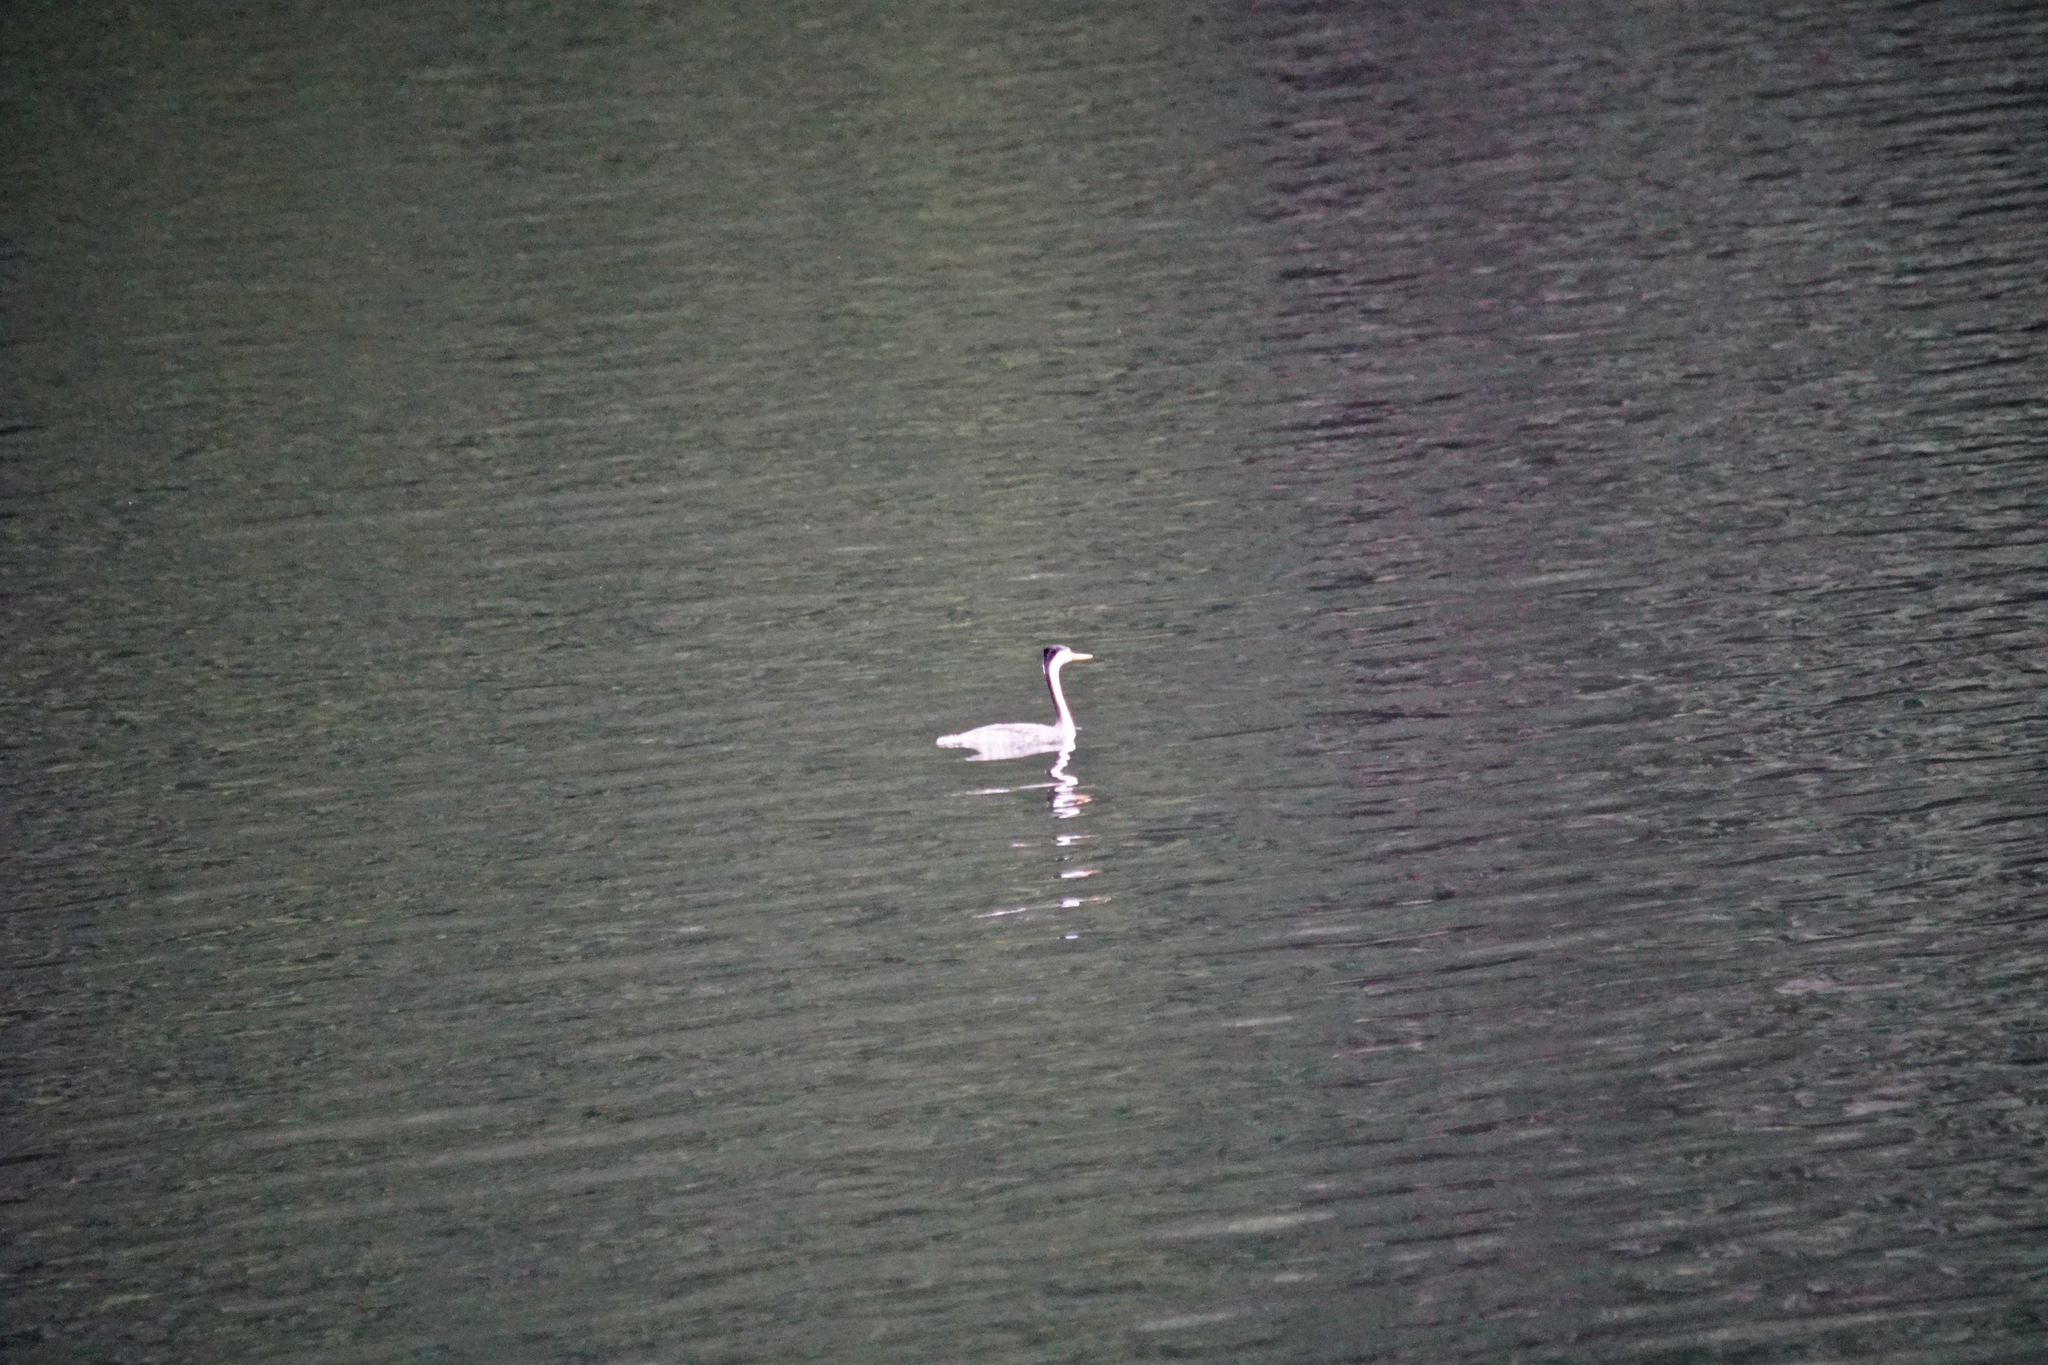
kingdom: Animalia
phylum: Chordata
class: Aves
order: Podicipediformes
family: Podicipedidae
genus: Aechmophorus
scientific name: Aechmophorus clarkii
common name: Clark's grebe
